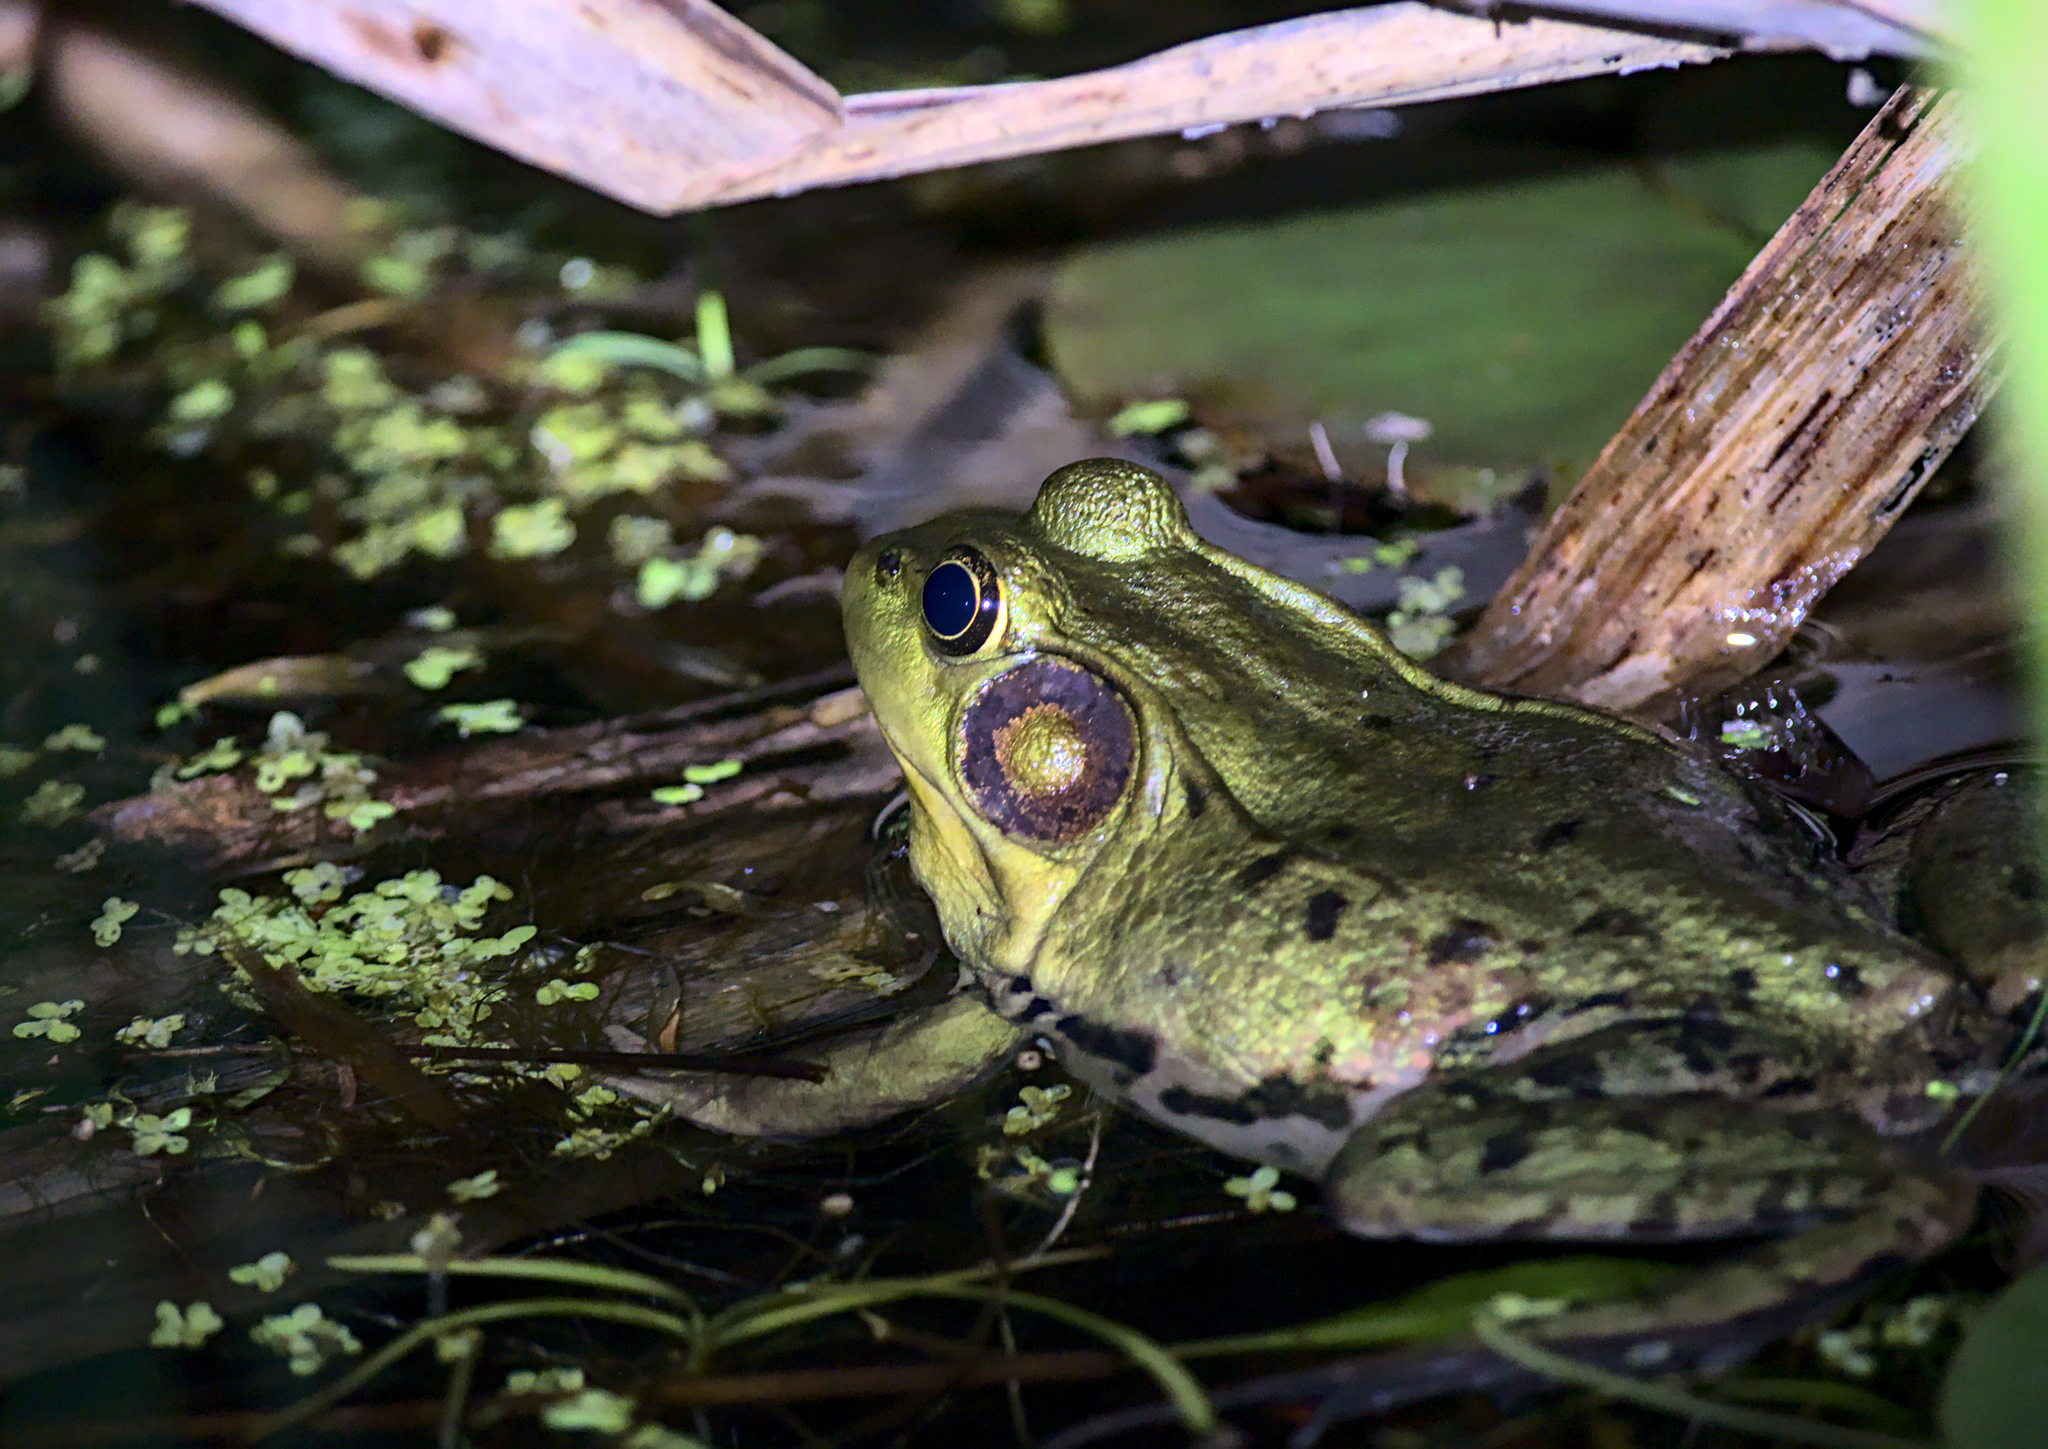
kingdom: Animalia
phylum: Chordata
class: Amphibia
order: Anura
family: Ranidae
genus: Lithobates
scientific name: Lithobates clamitans
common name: Green frog
